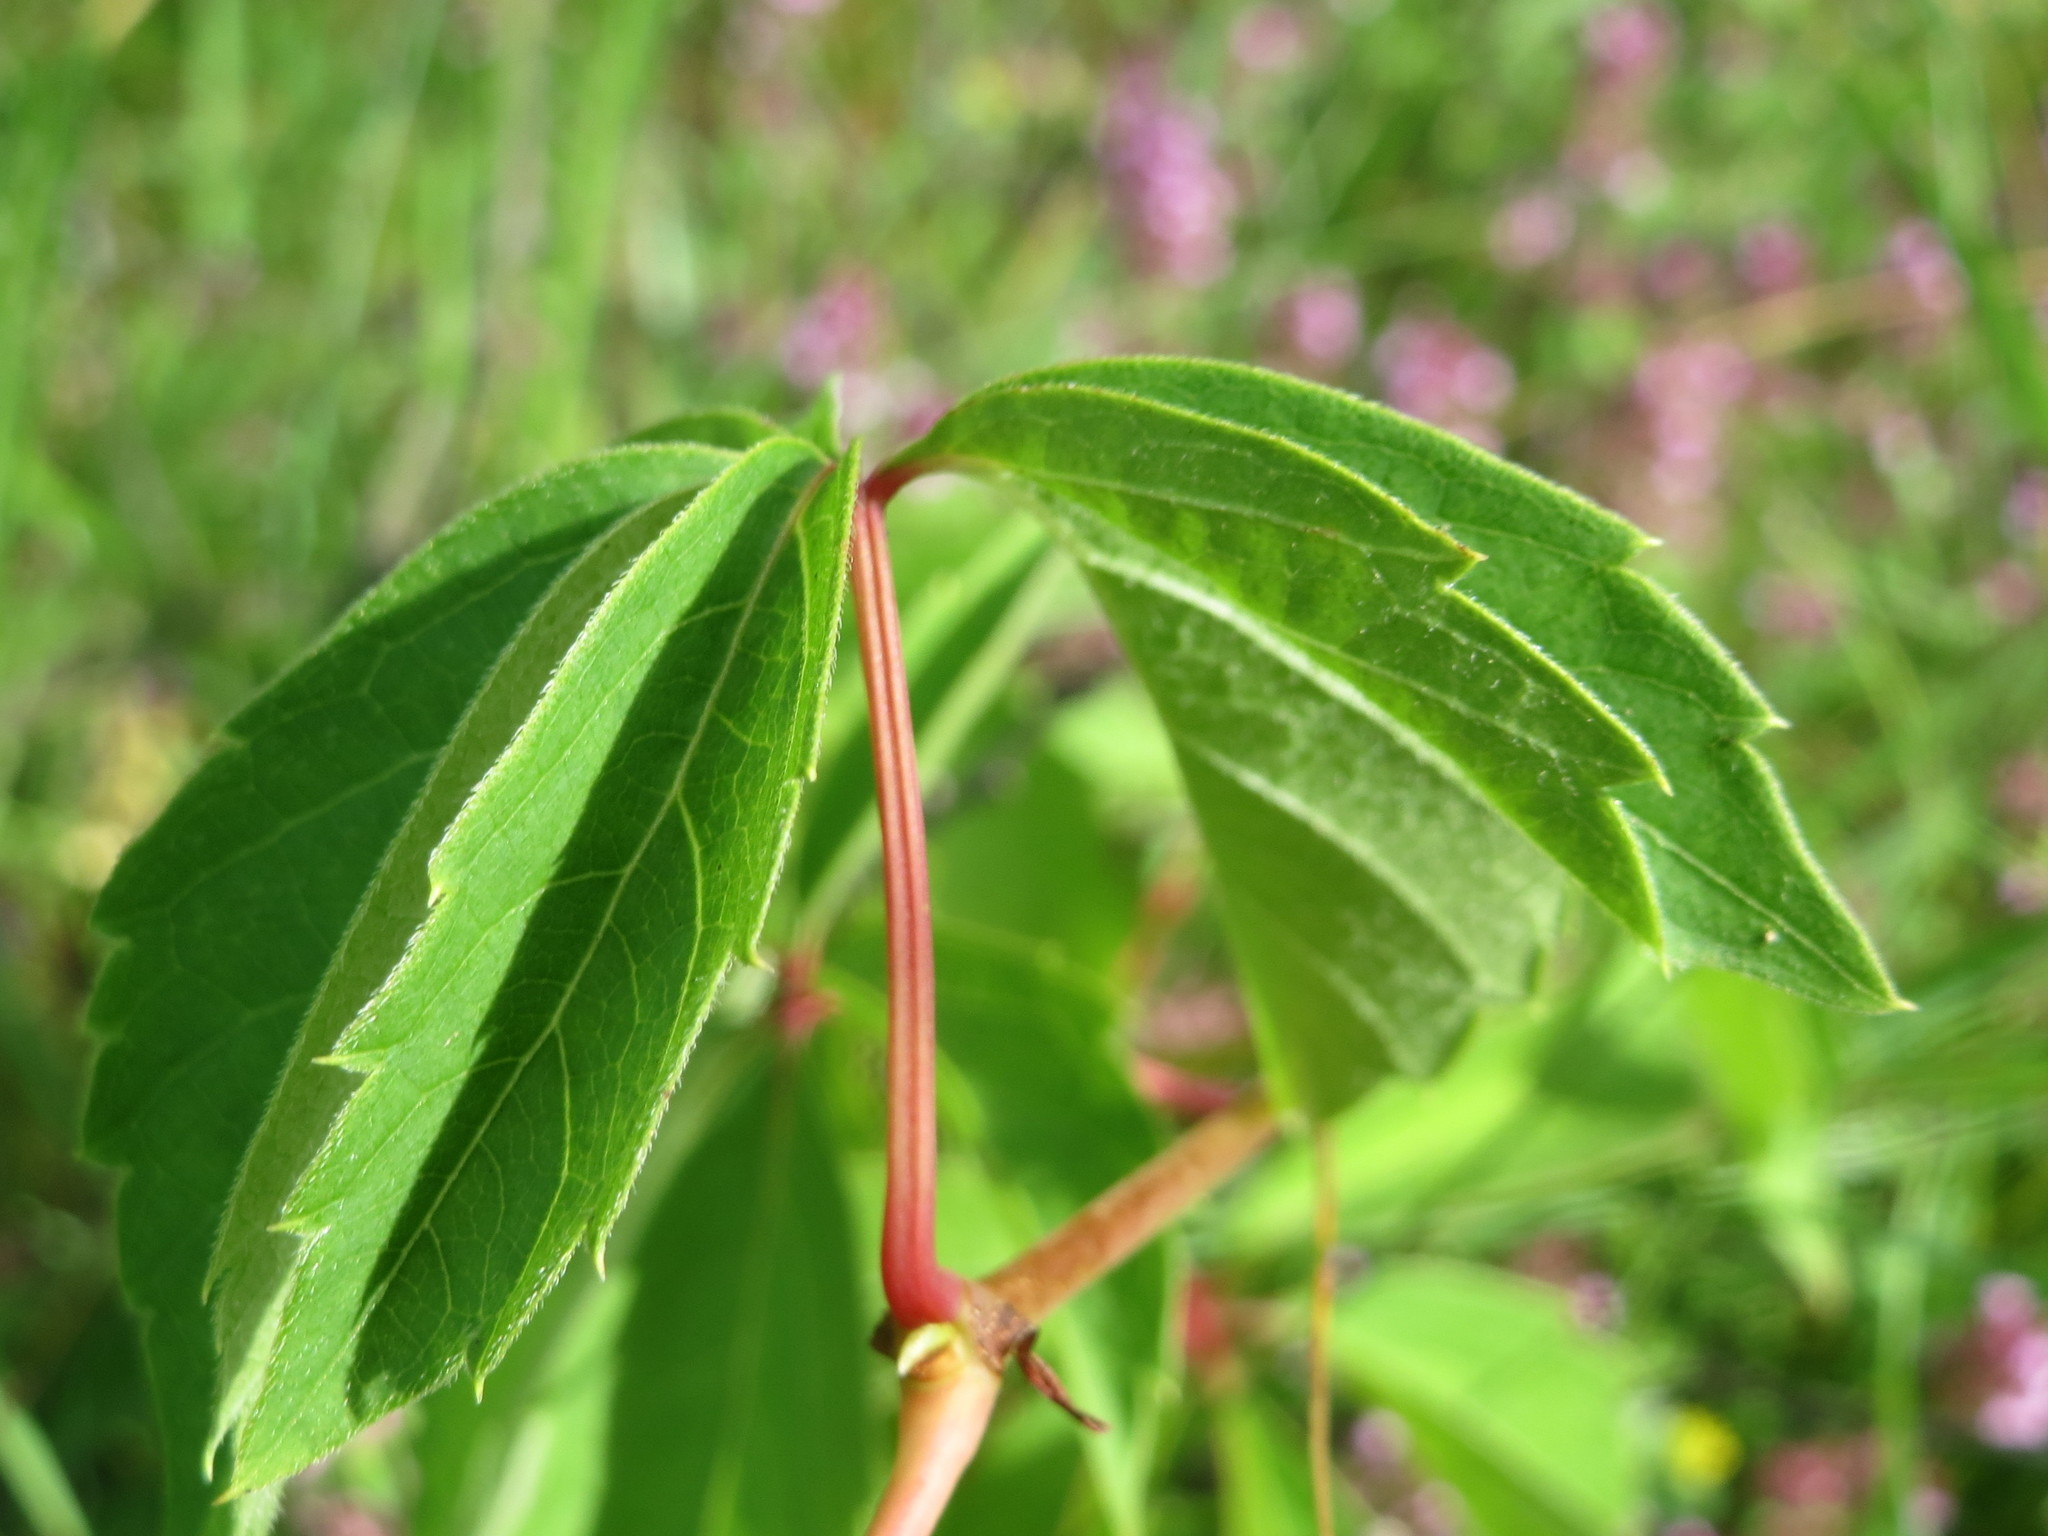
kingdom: Plantae
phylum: Tracheophyta
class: Magnoliopsida
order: Vitales
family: Vitaceae
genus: Parthenocissus
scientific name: Parthenocissus quinquefolia
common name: Virginia-creeper
